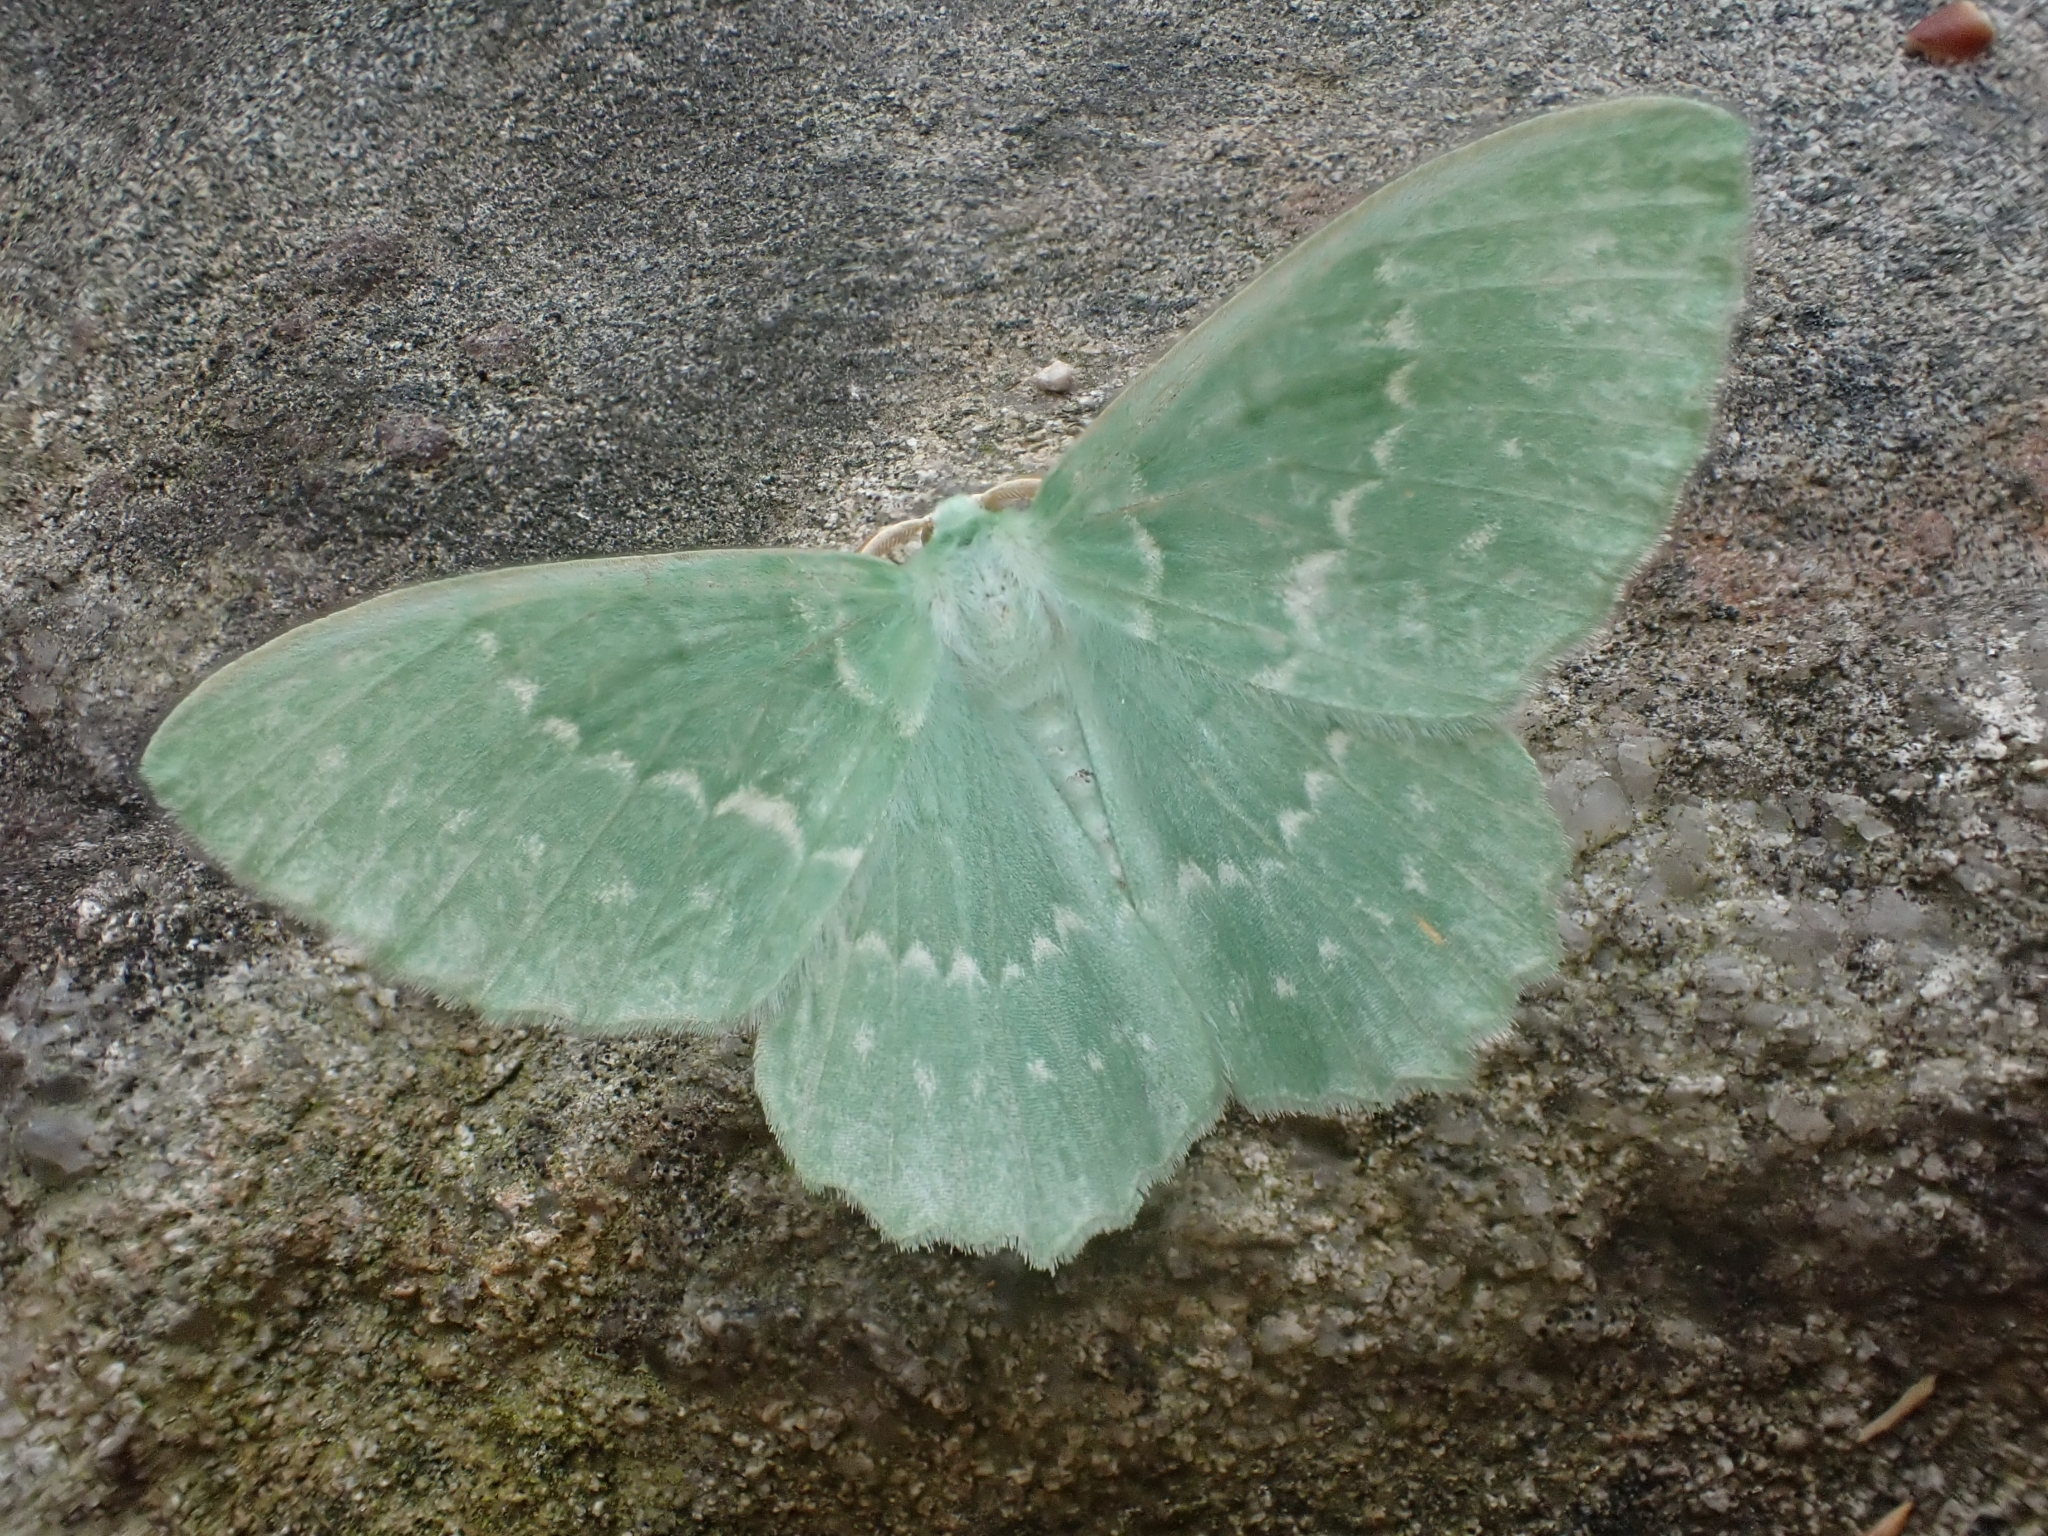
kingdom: Animalia
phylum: Arthropoda
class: Insecta
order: Lepidoptera
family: Geometridae
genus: Geometra
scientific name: Geometra papilionaria
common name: Large emerald
